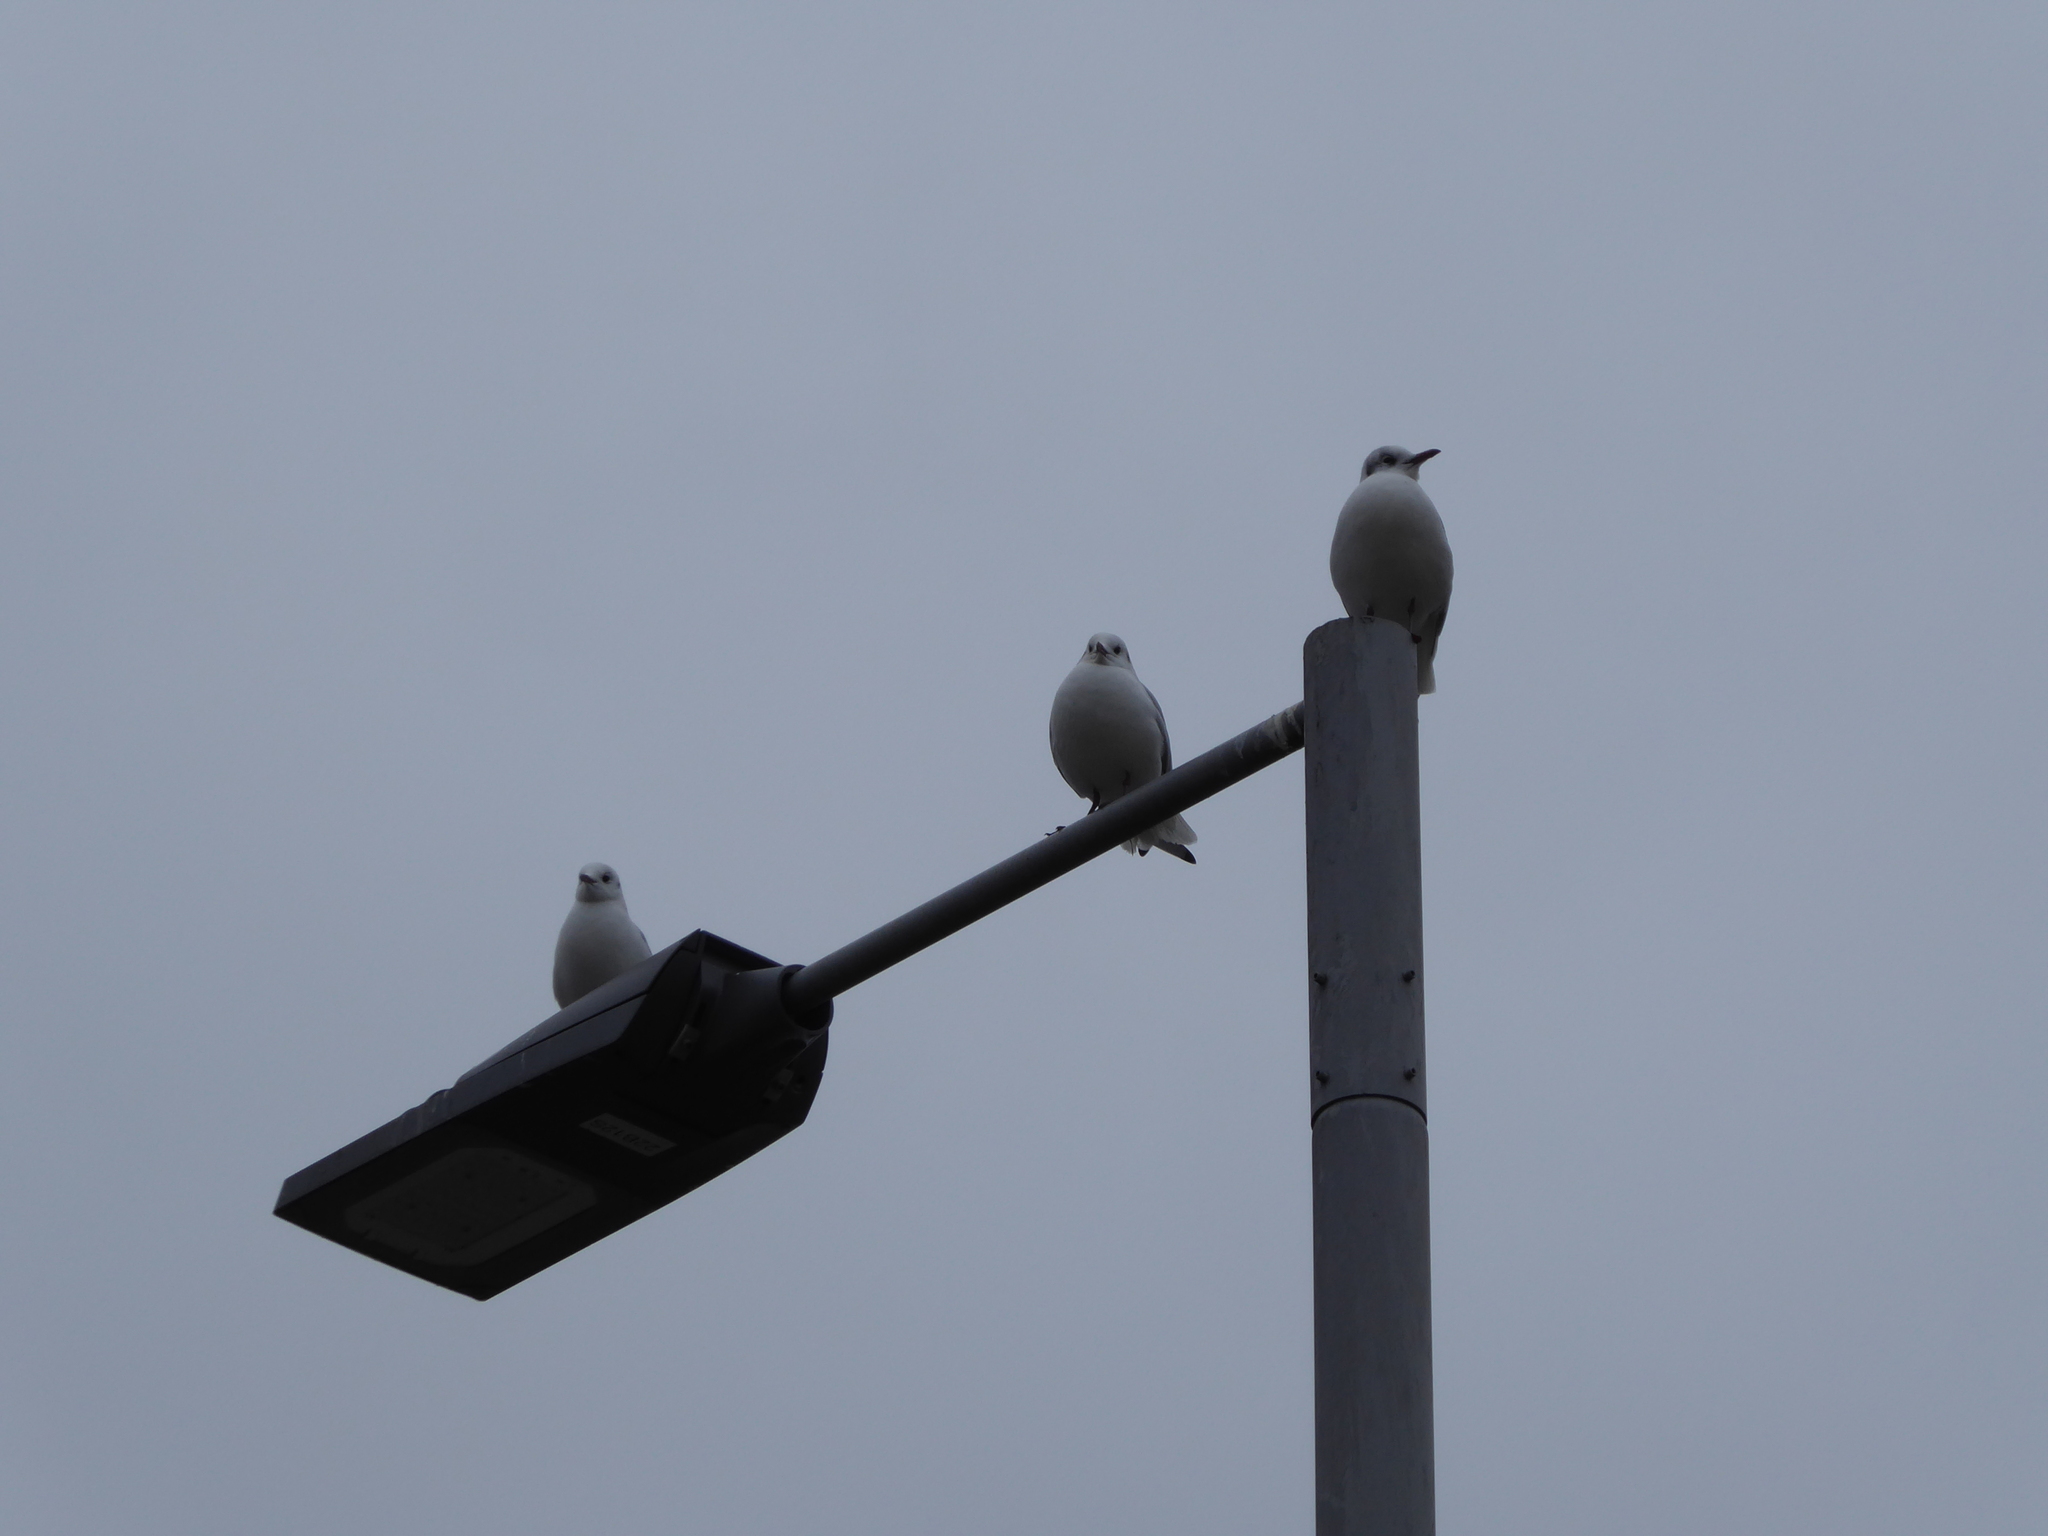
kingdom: Animalia
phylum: Chordata
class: Aves
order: Charadriiformes
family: Laridae
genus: Chroicocephalus
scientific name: Chroicocephalus ridibundus
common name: Black-headed gull
